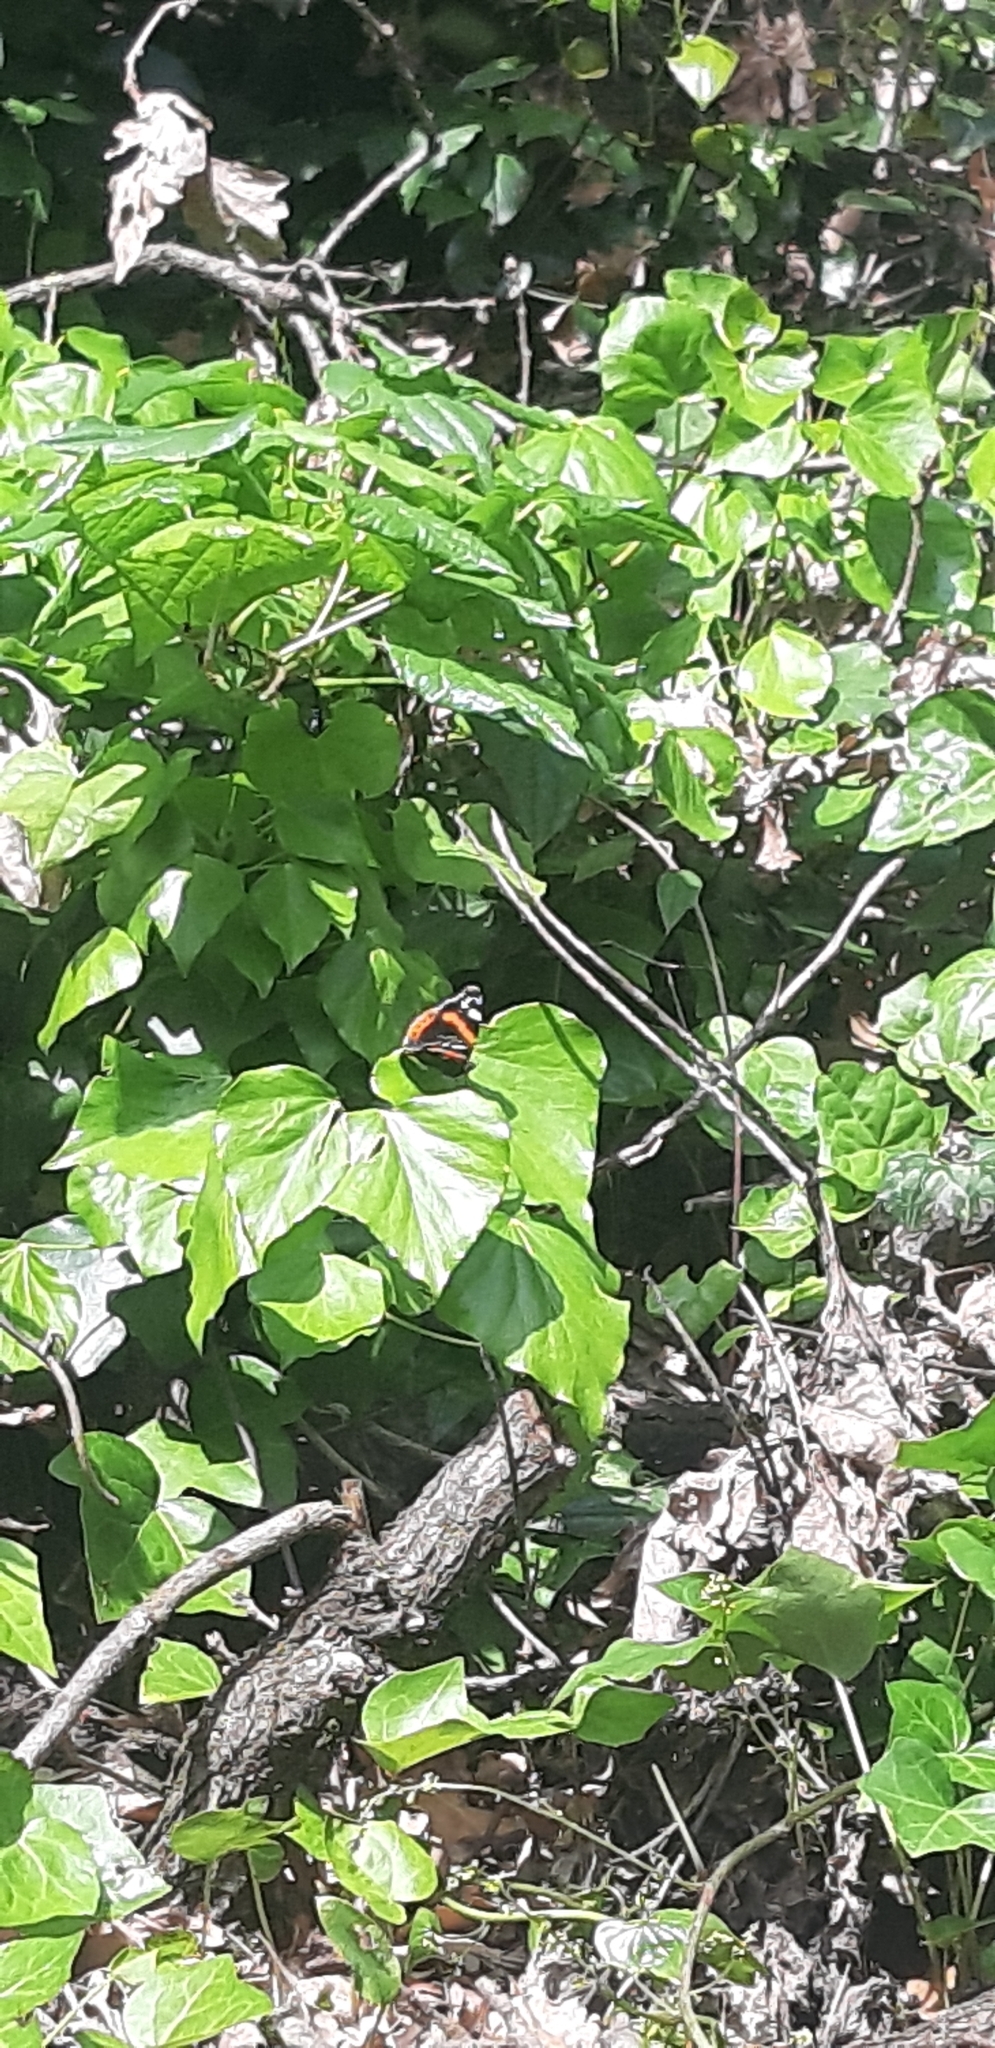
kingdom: Animalia
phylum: Arthropoda
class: Insecta
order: Lepidoptera
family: Nymphalidae
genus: Vanessa
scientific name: Vanessa atalanta
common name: Red admiral
